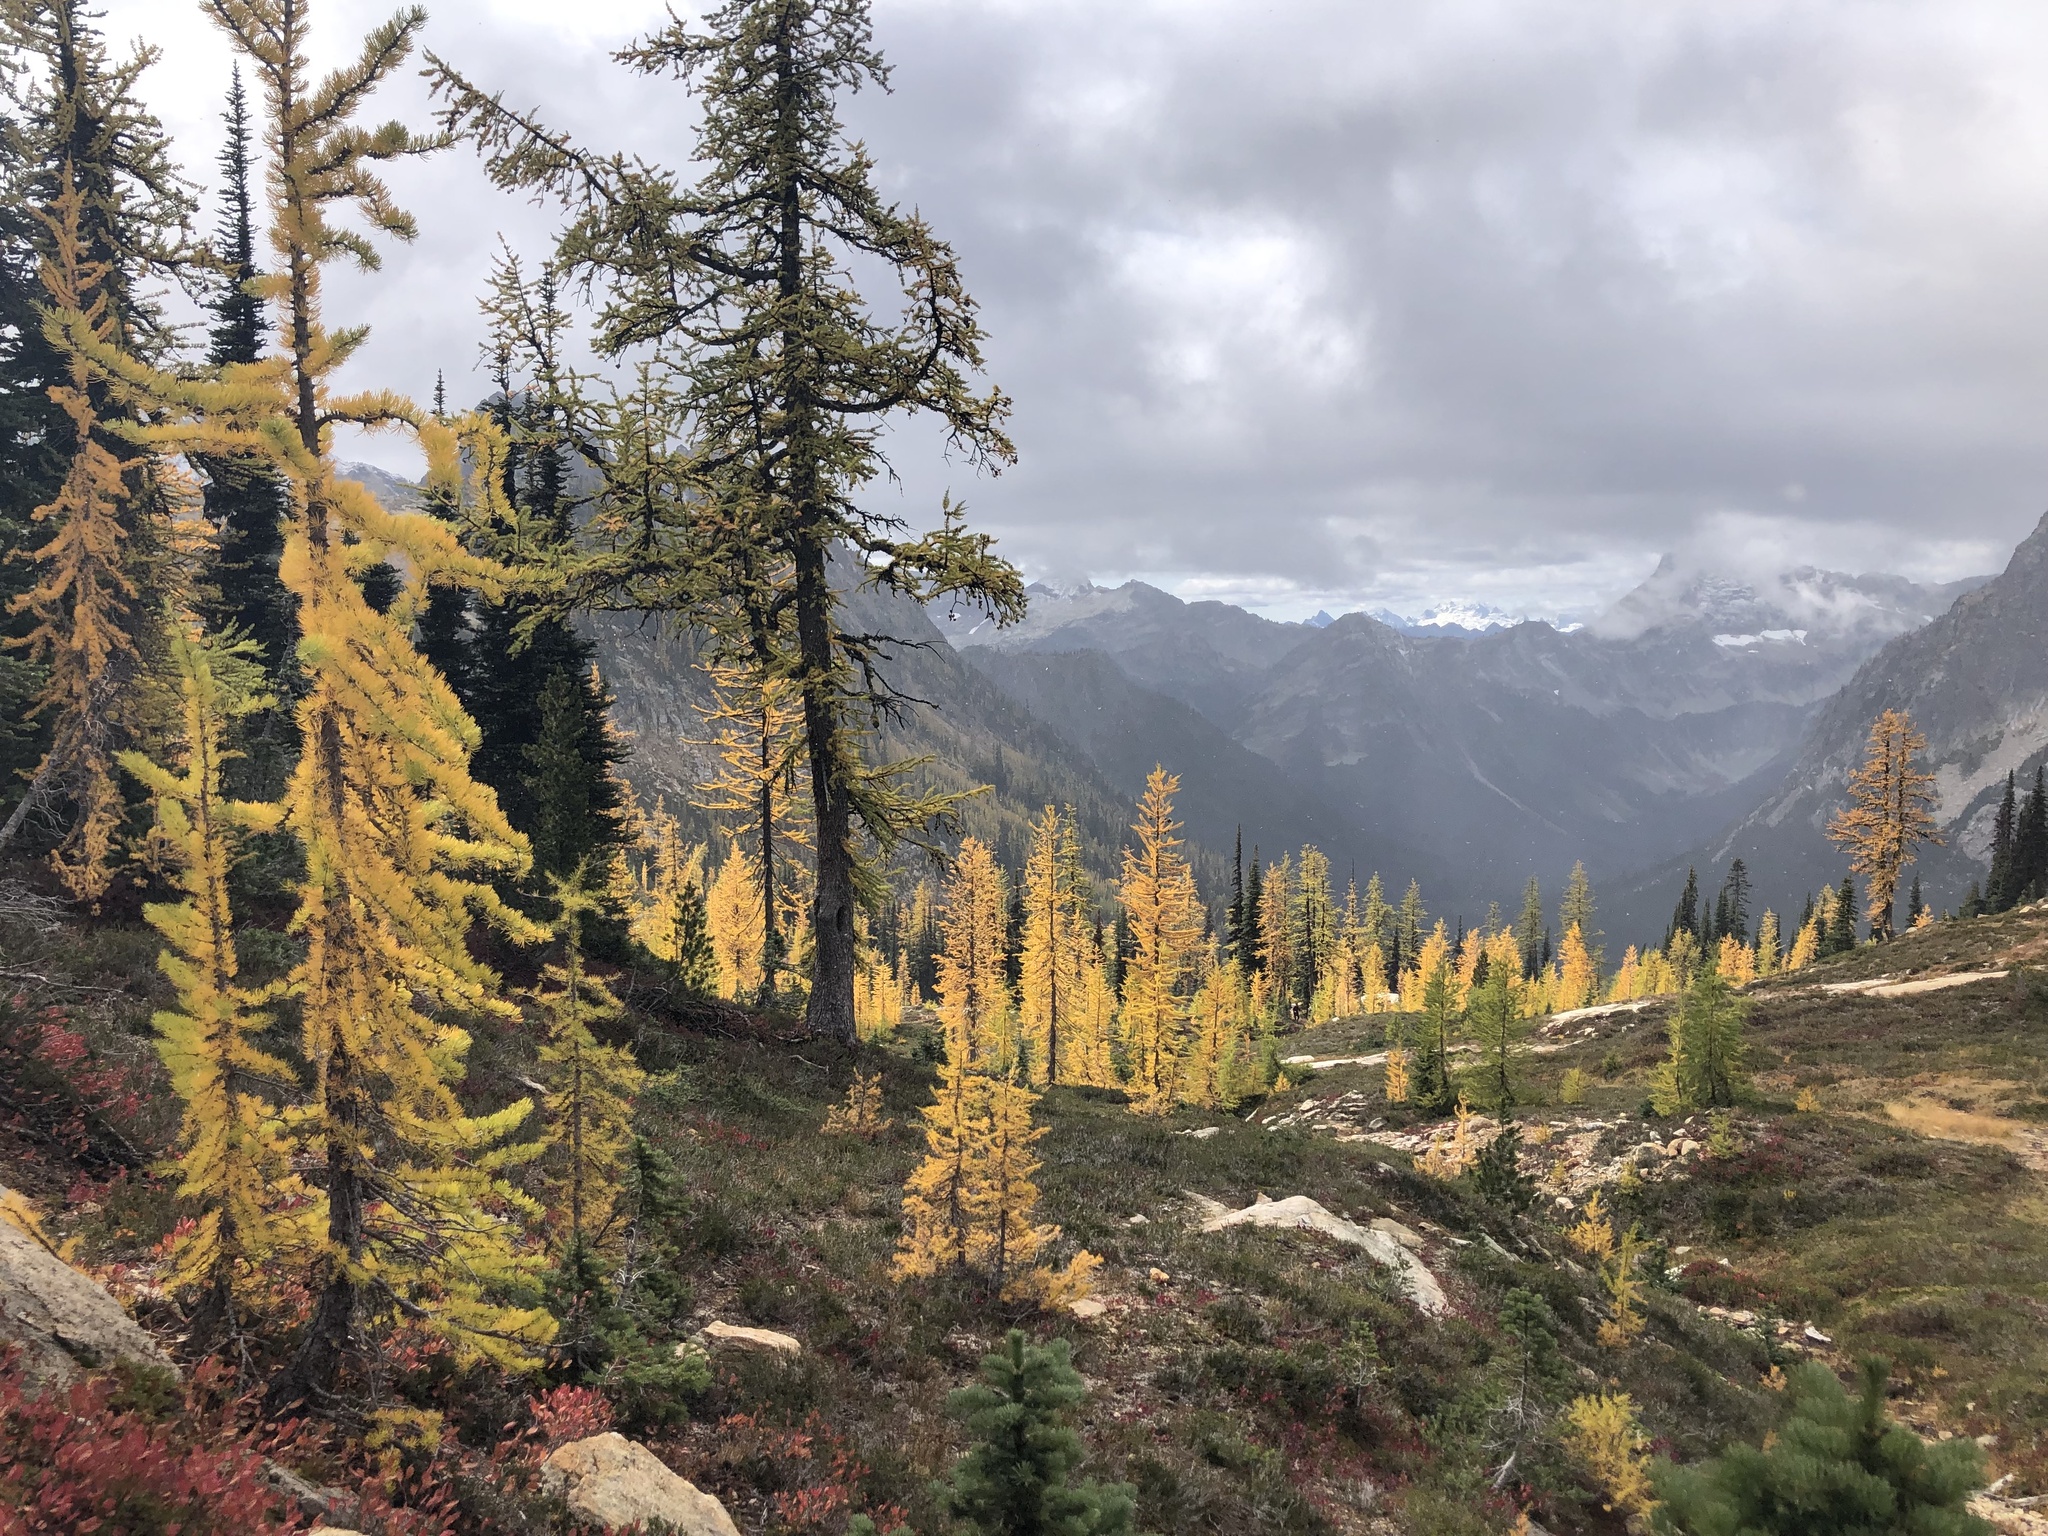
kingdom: Plantae
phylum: Tracheophyta
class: Pinopsida
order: Pinales
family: Pinaceae
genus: Larix
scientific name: Larix lyallii
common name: Alpine larch
